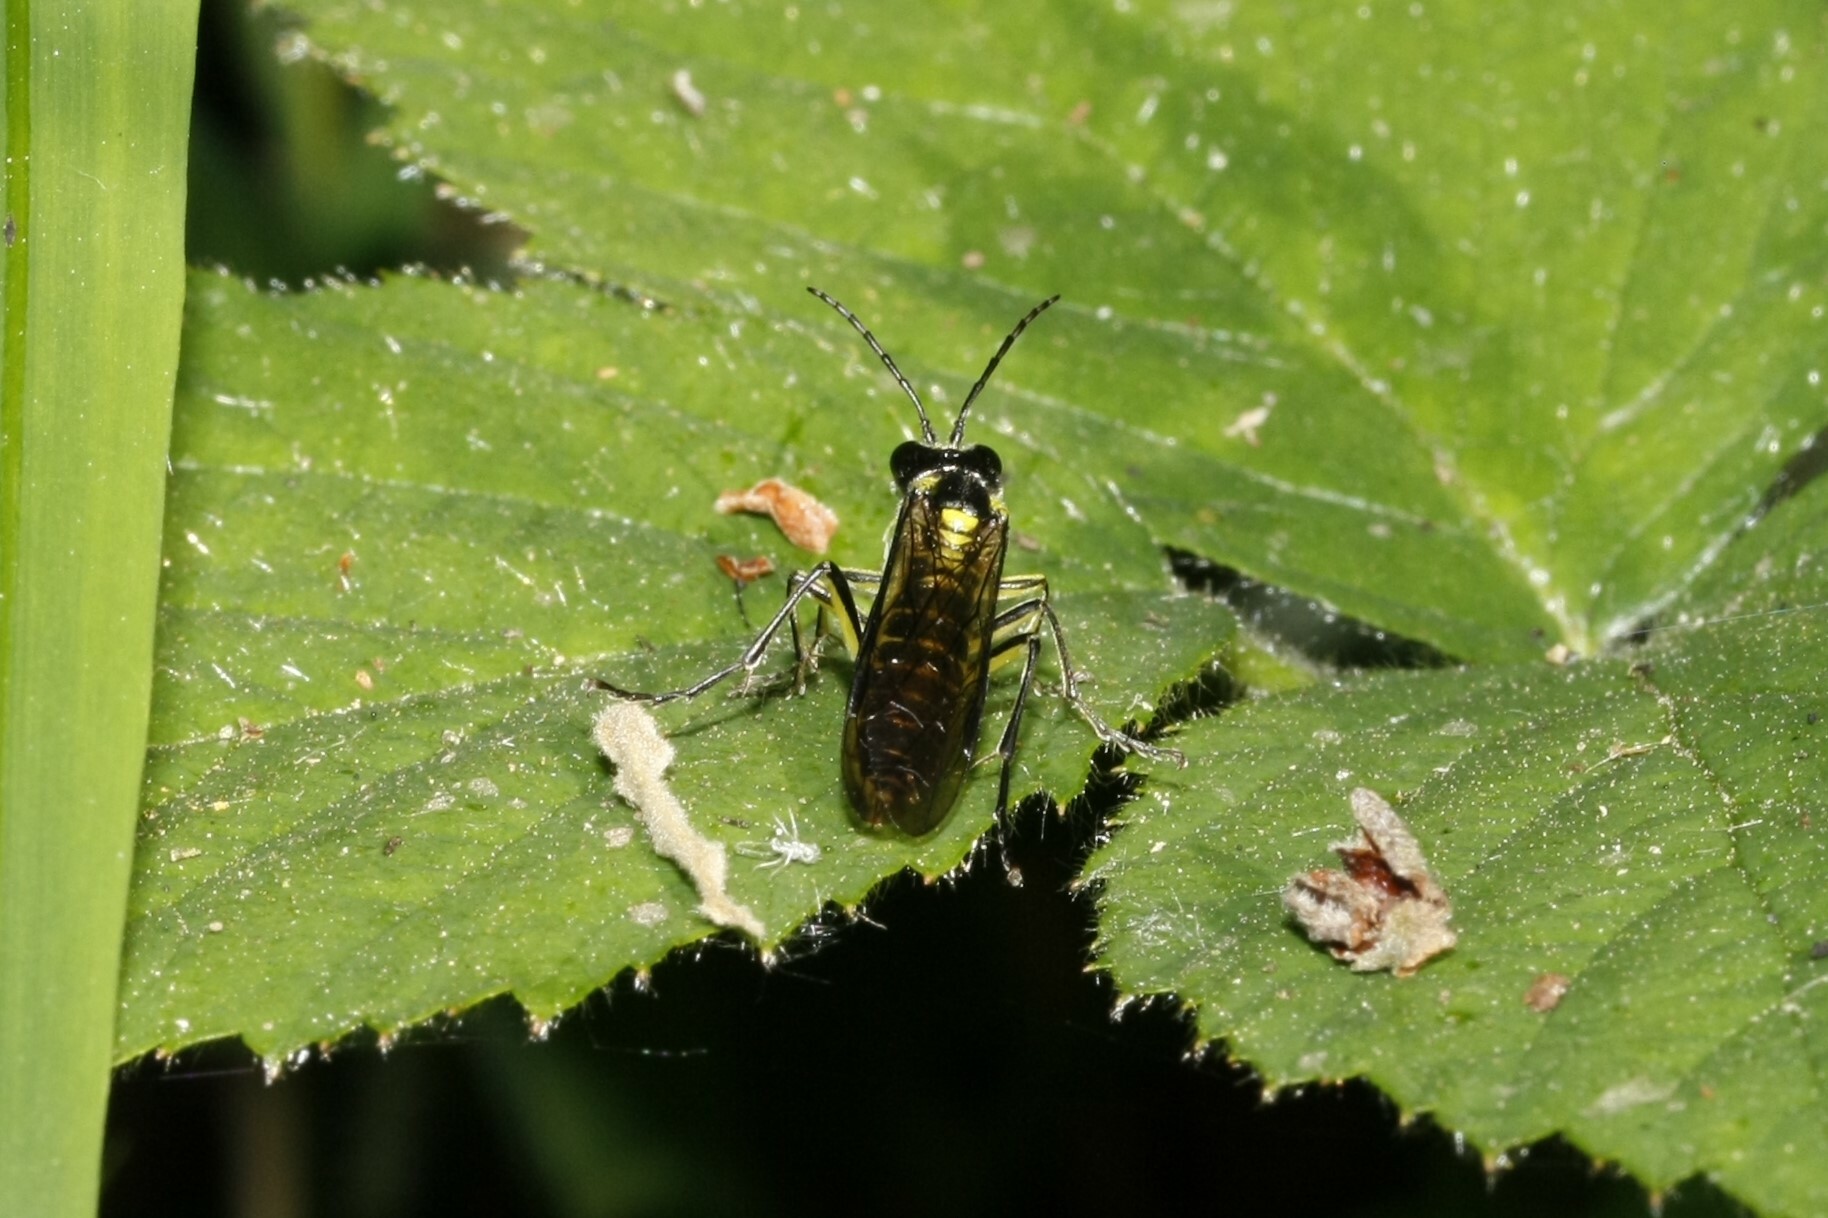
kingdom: Animalia
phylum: Arthropoda
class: Insecta
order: Hymenoptera
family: Tenthredinidae
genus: Tenthredo
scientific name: Tenthredo mesomela
